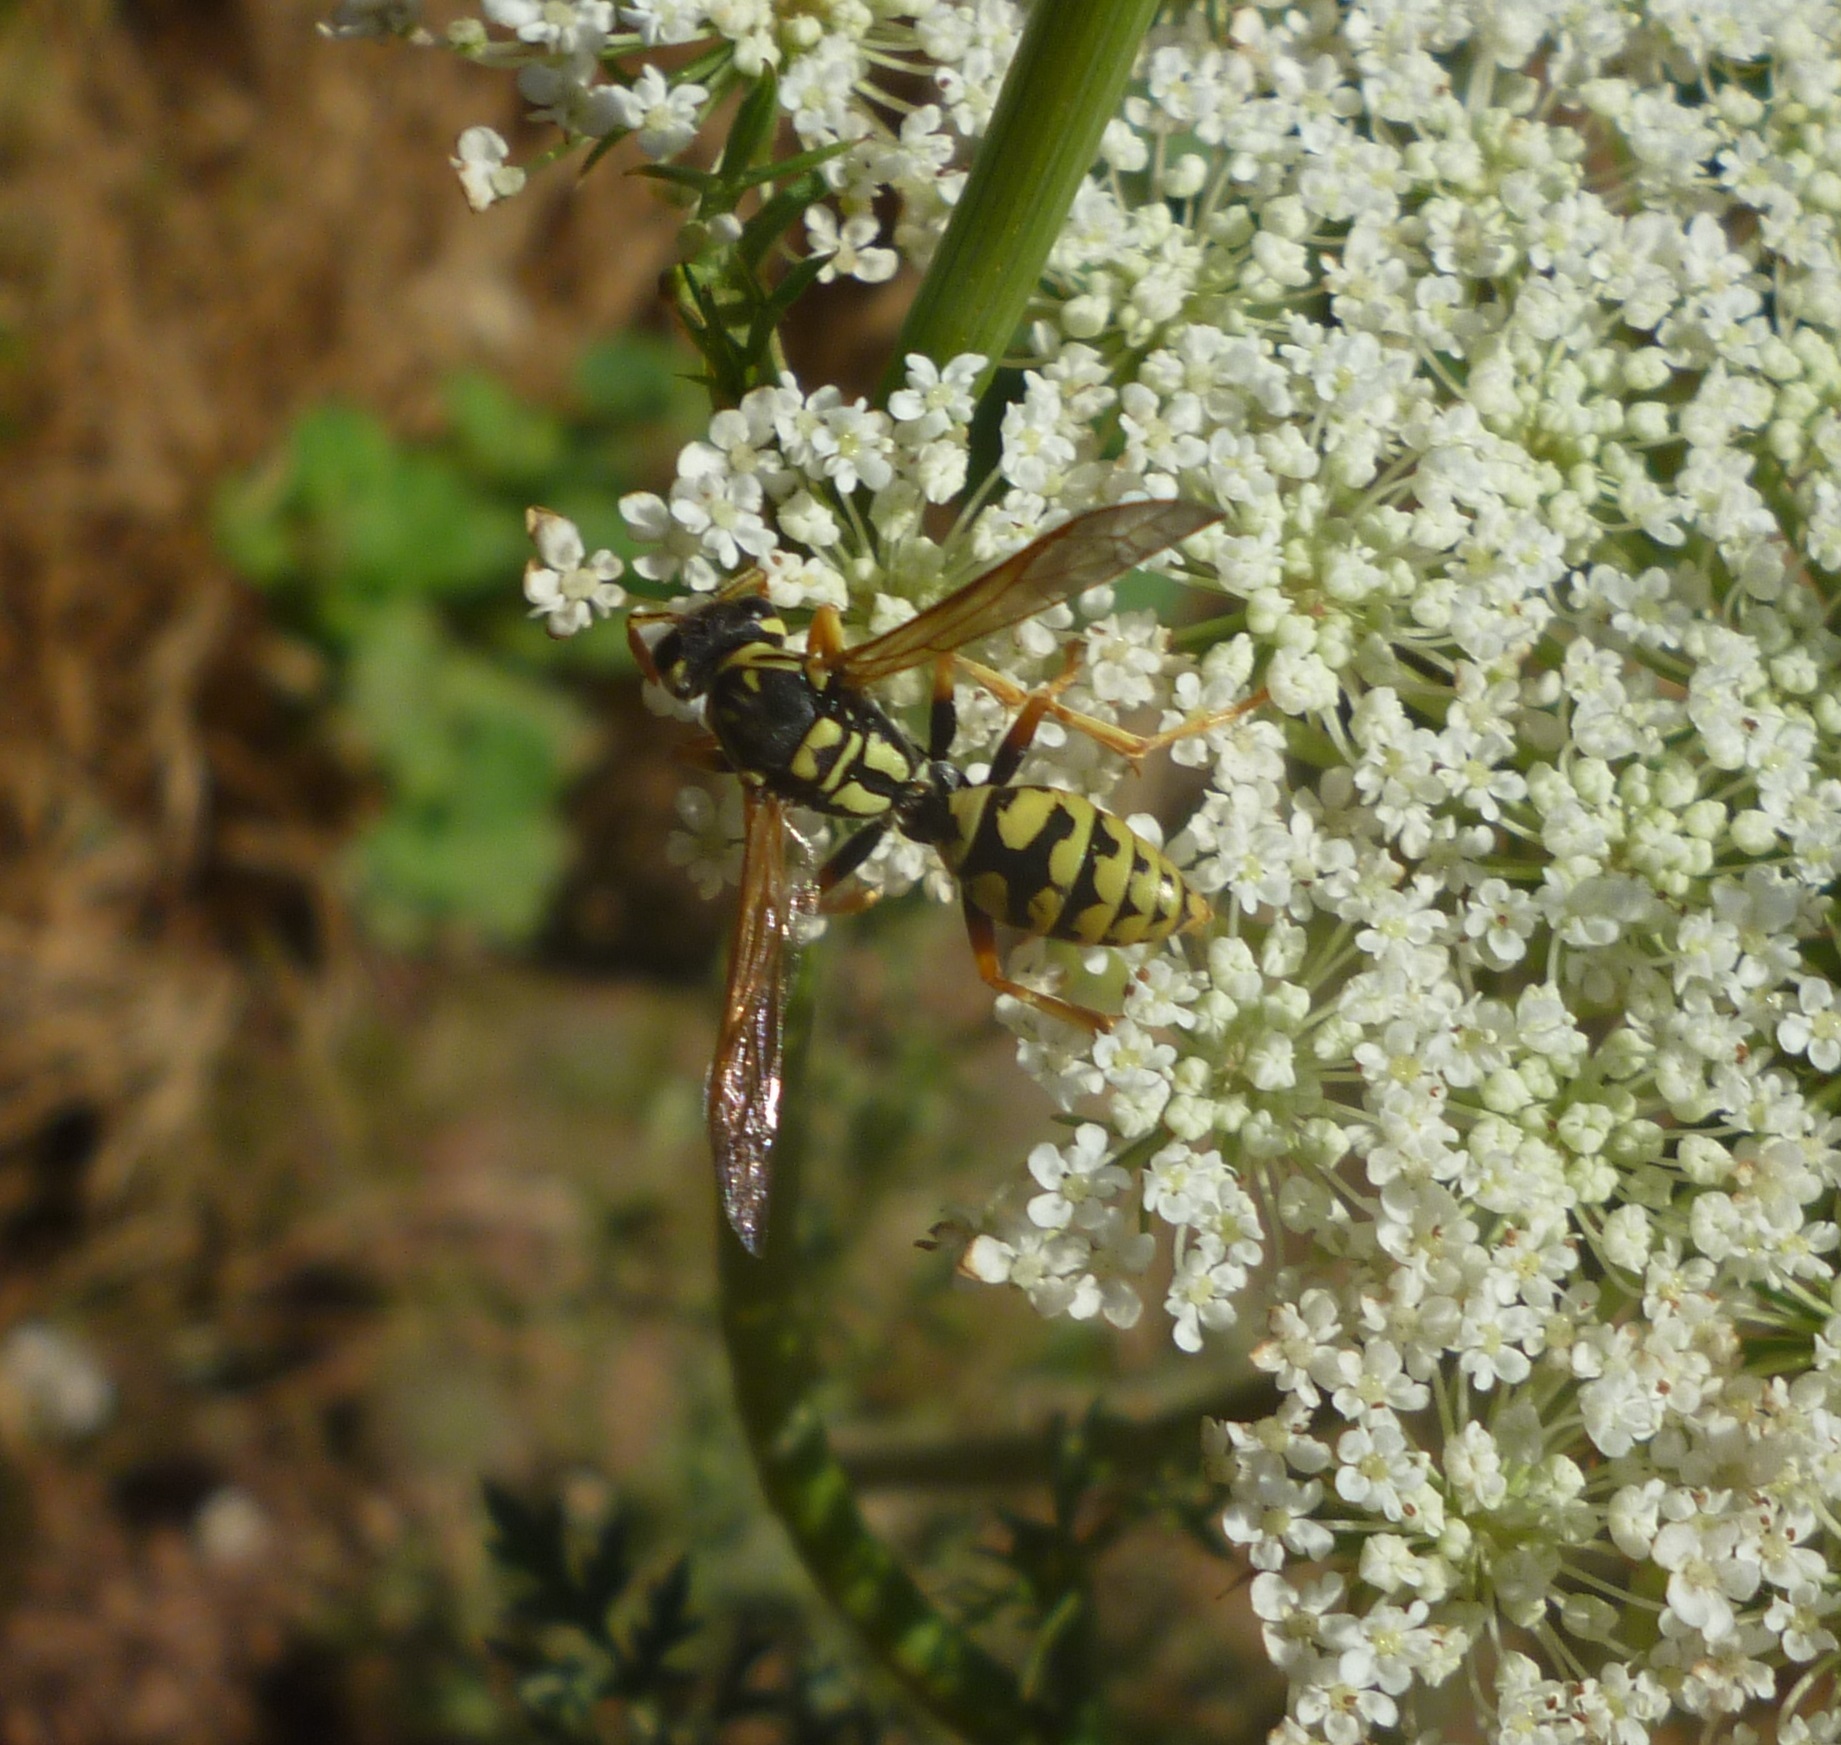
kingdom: Animalia
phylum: Arthropoda
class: Insecta
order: Hymenoptera
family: Eumenidae
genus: Polistes
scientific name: Polistes dominula
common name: Paper wasp
